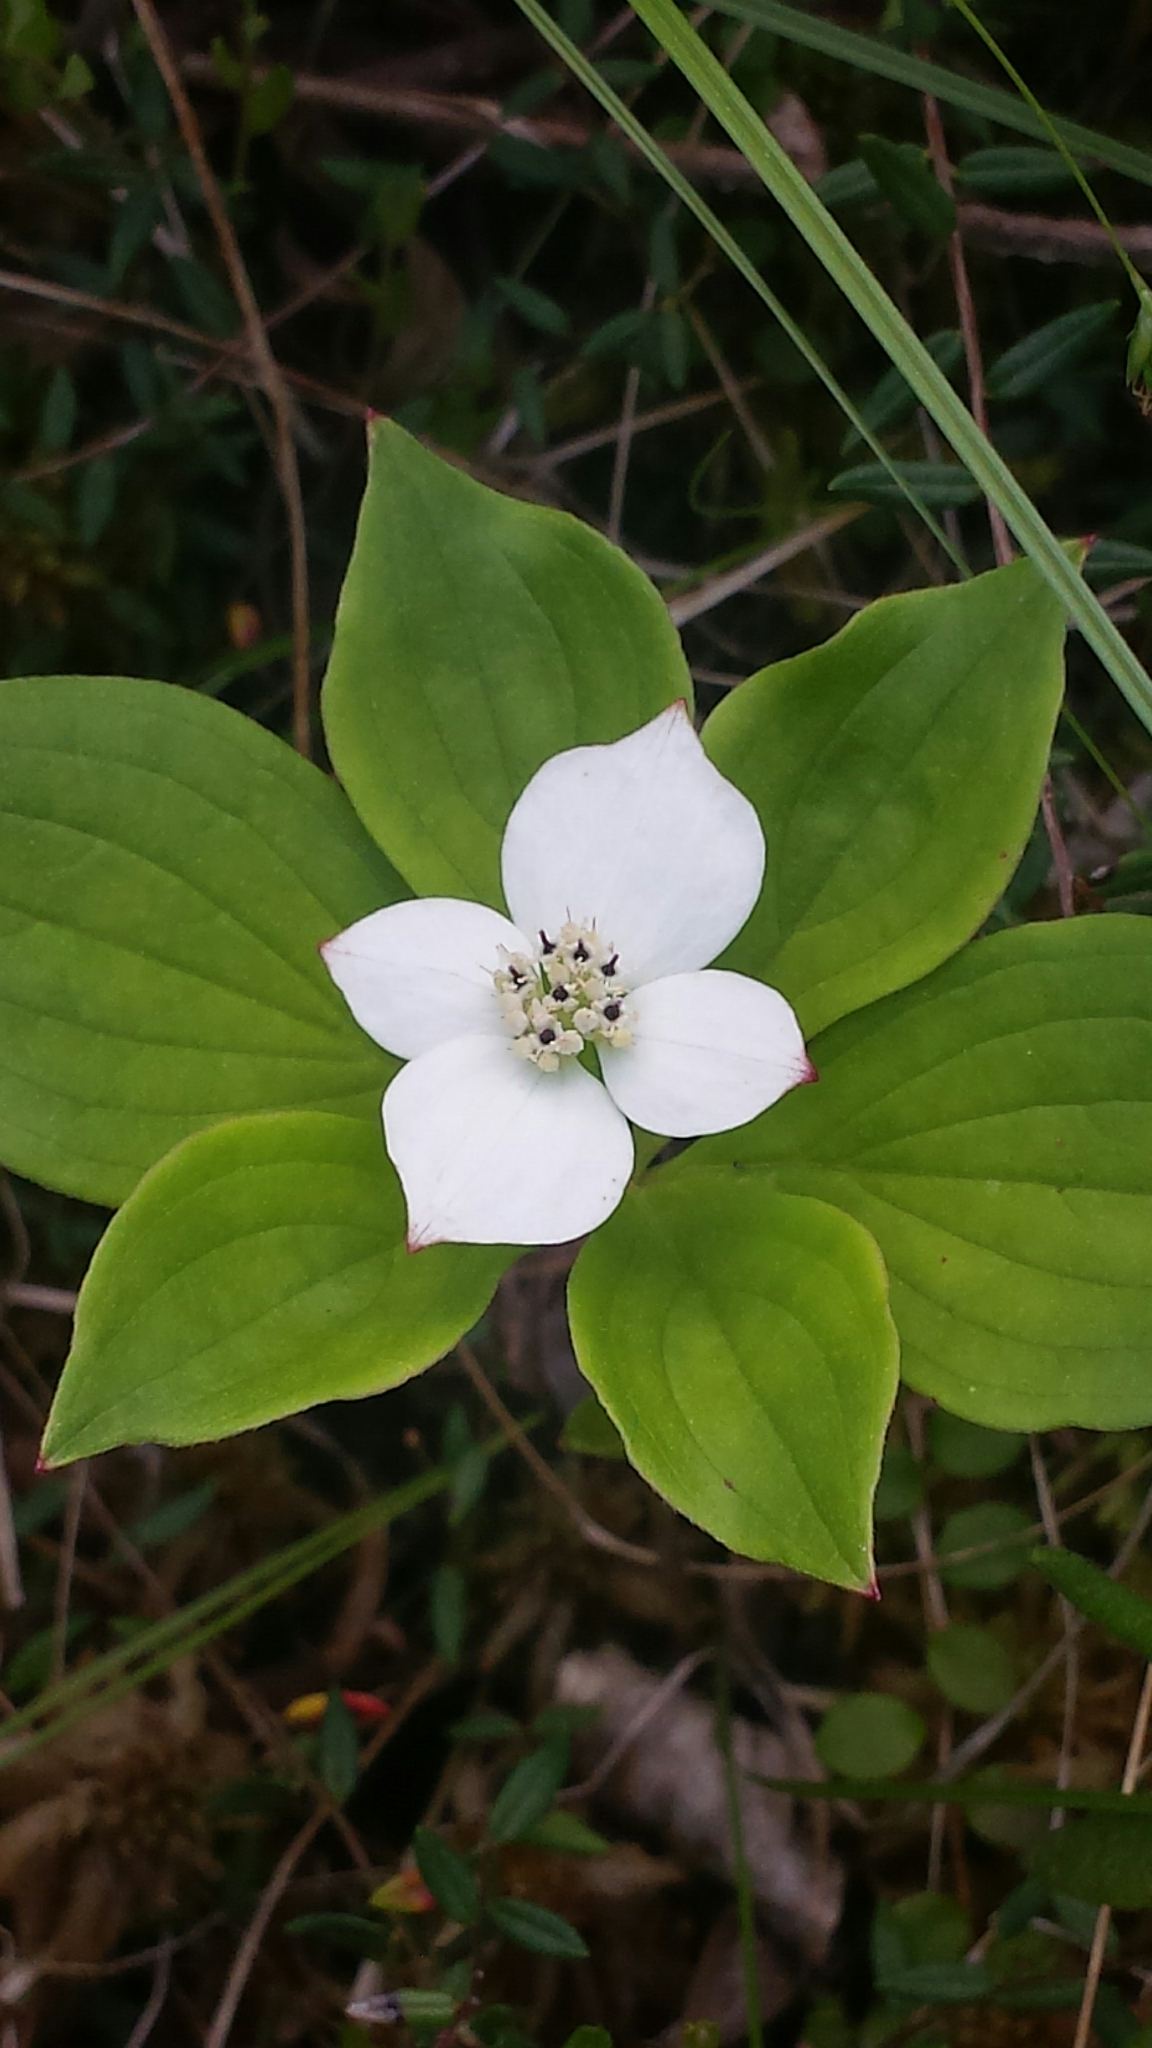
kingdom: Plantae
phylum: Tracheophyta
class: Magnoliopsida
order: Cornales
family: Cornaceae
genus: Cornus
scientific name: Cornus canadensis
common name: Creeping dogwood
